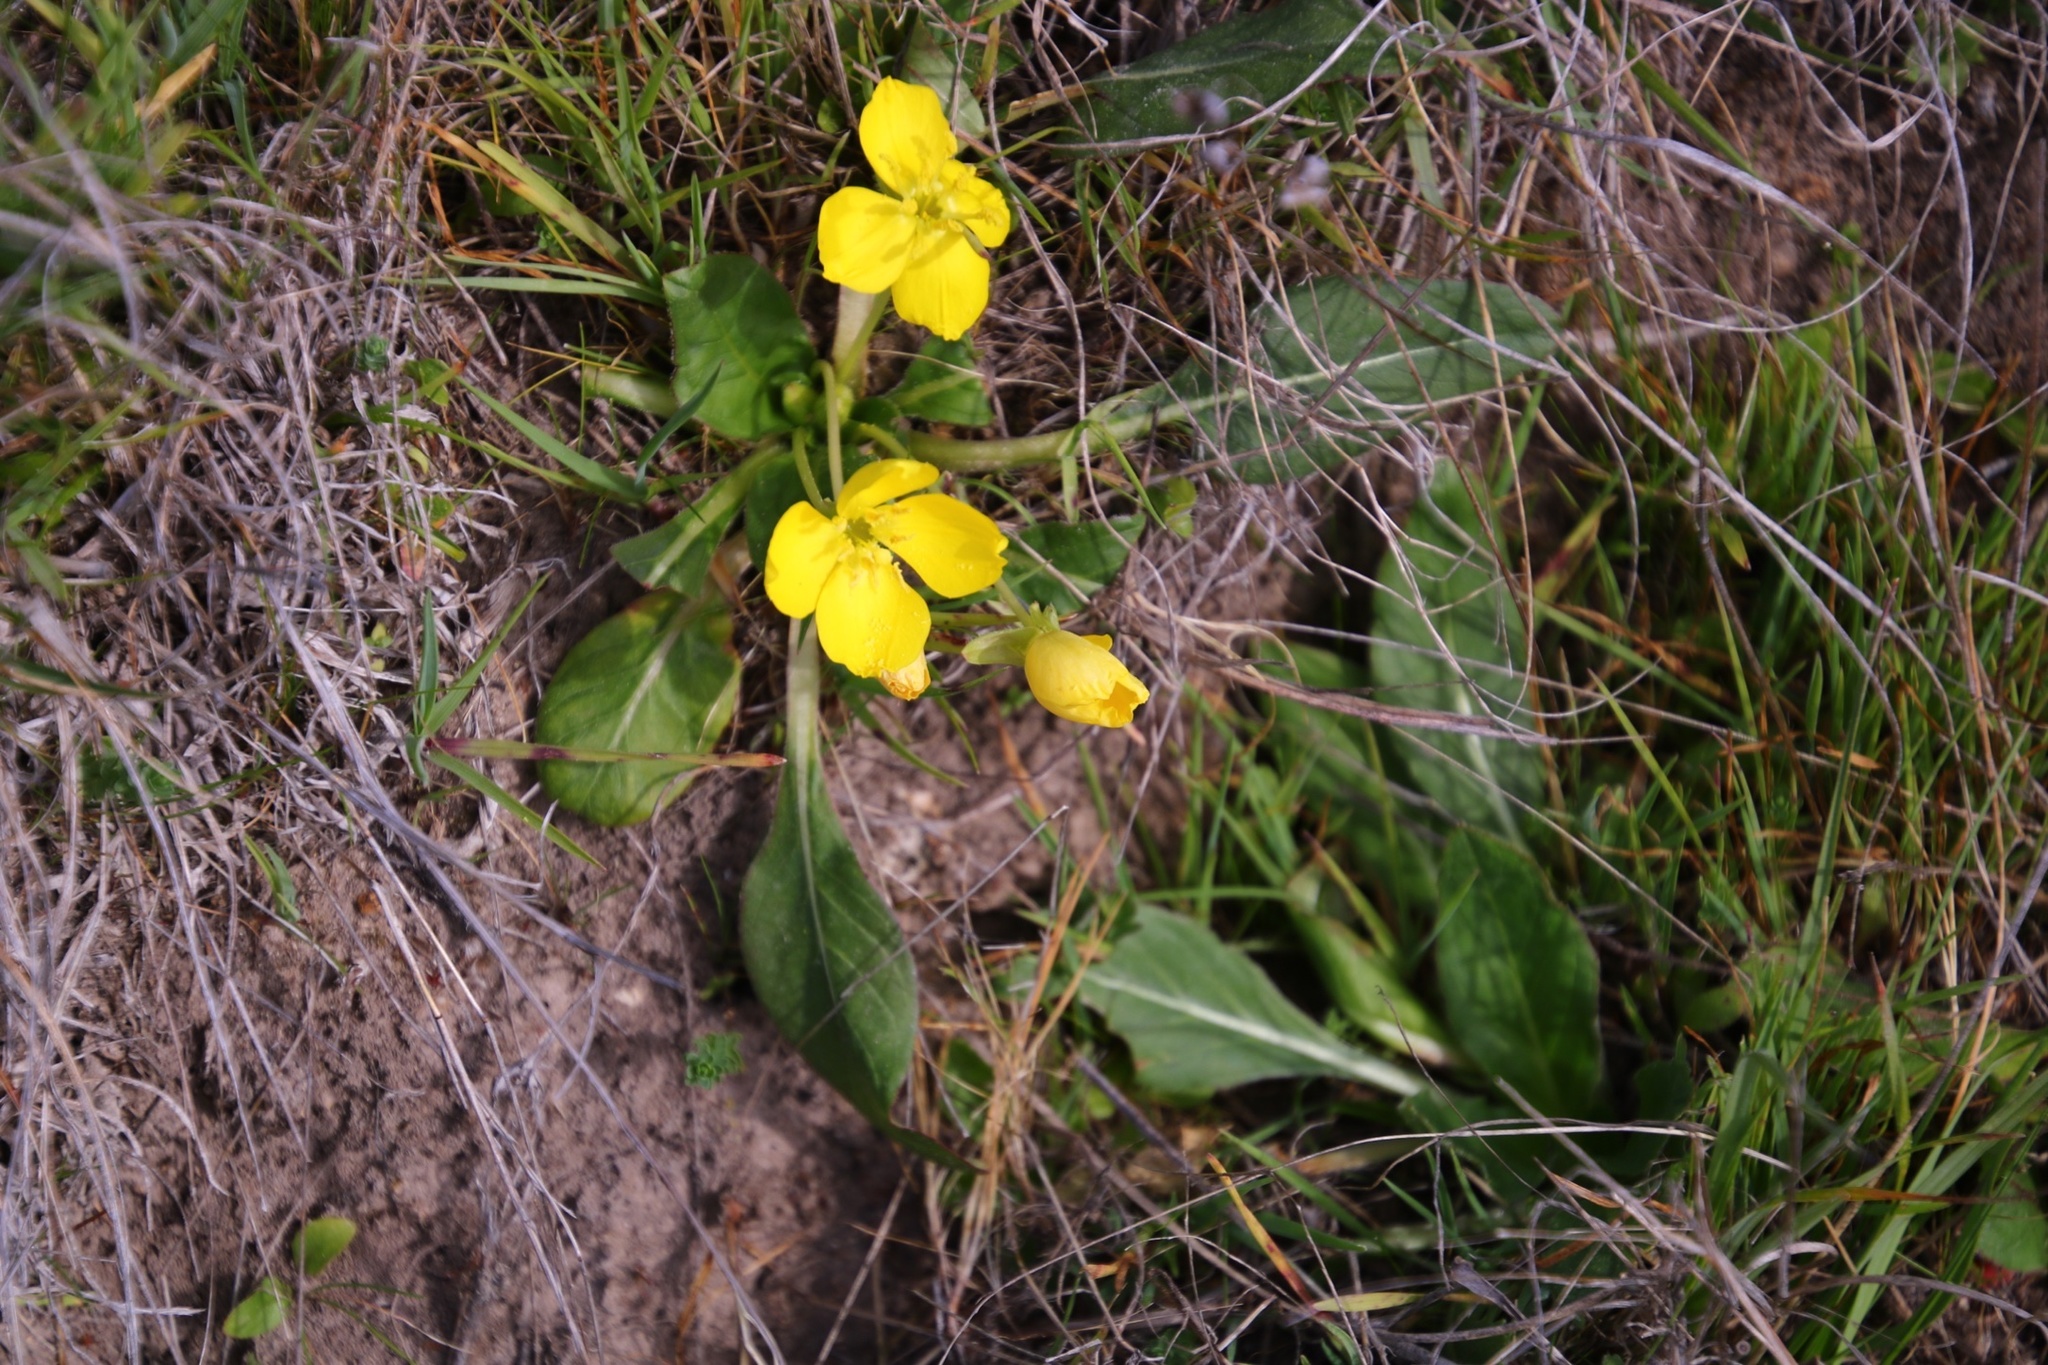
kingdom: Plantae
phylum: Tracheophyta
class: Magnoliopsida
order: Myrtales
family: Onagraceae
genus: Taraxia
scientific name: Taraxia ovata
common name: Goldeneggs
